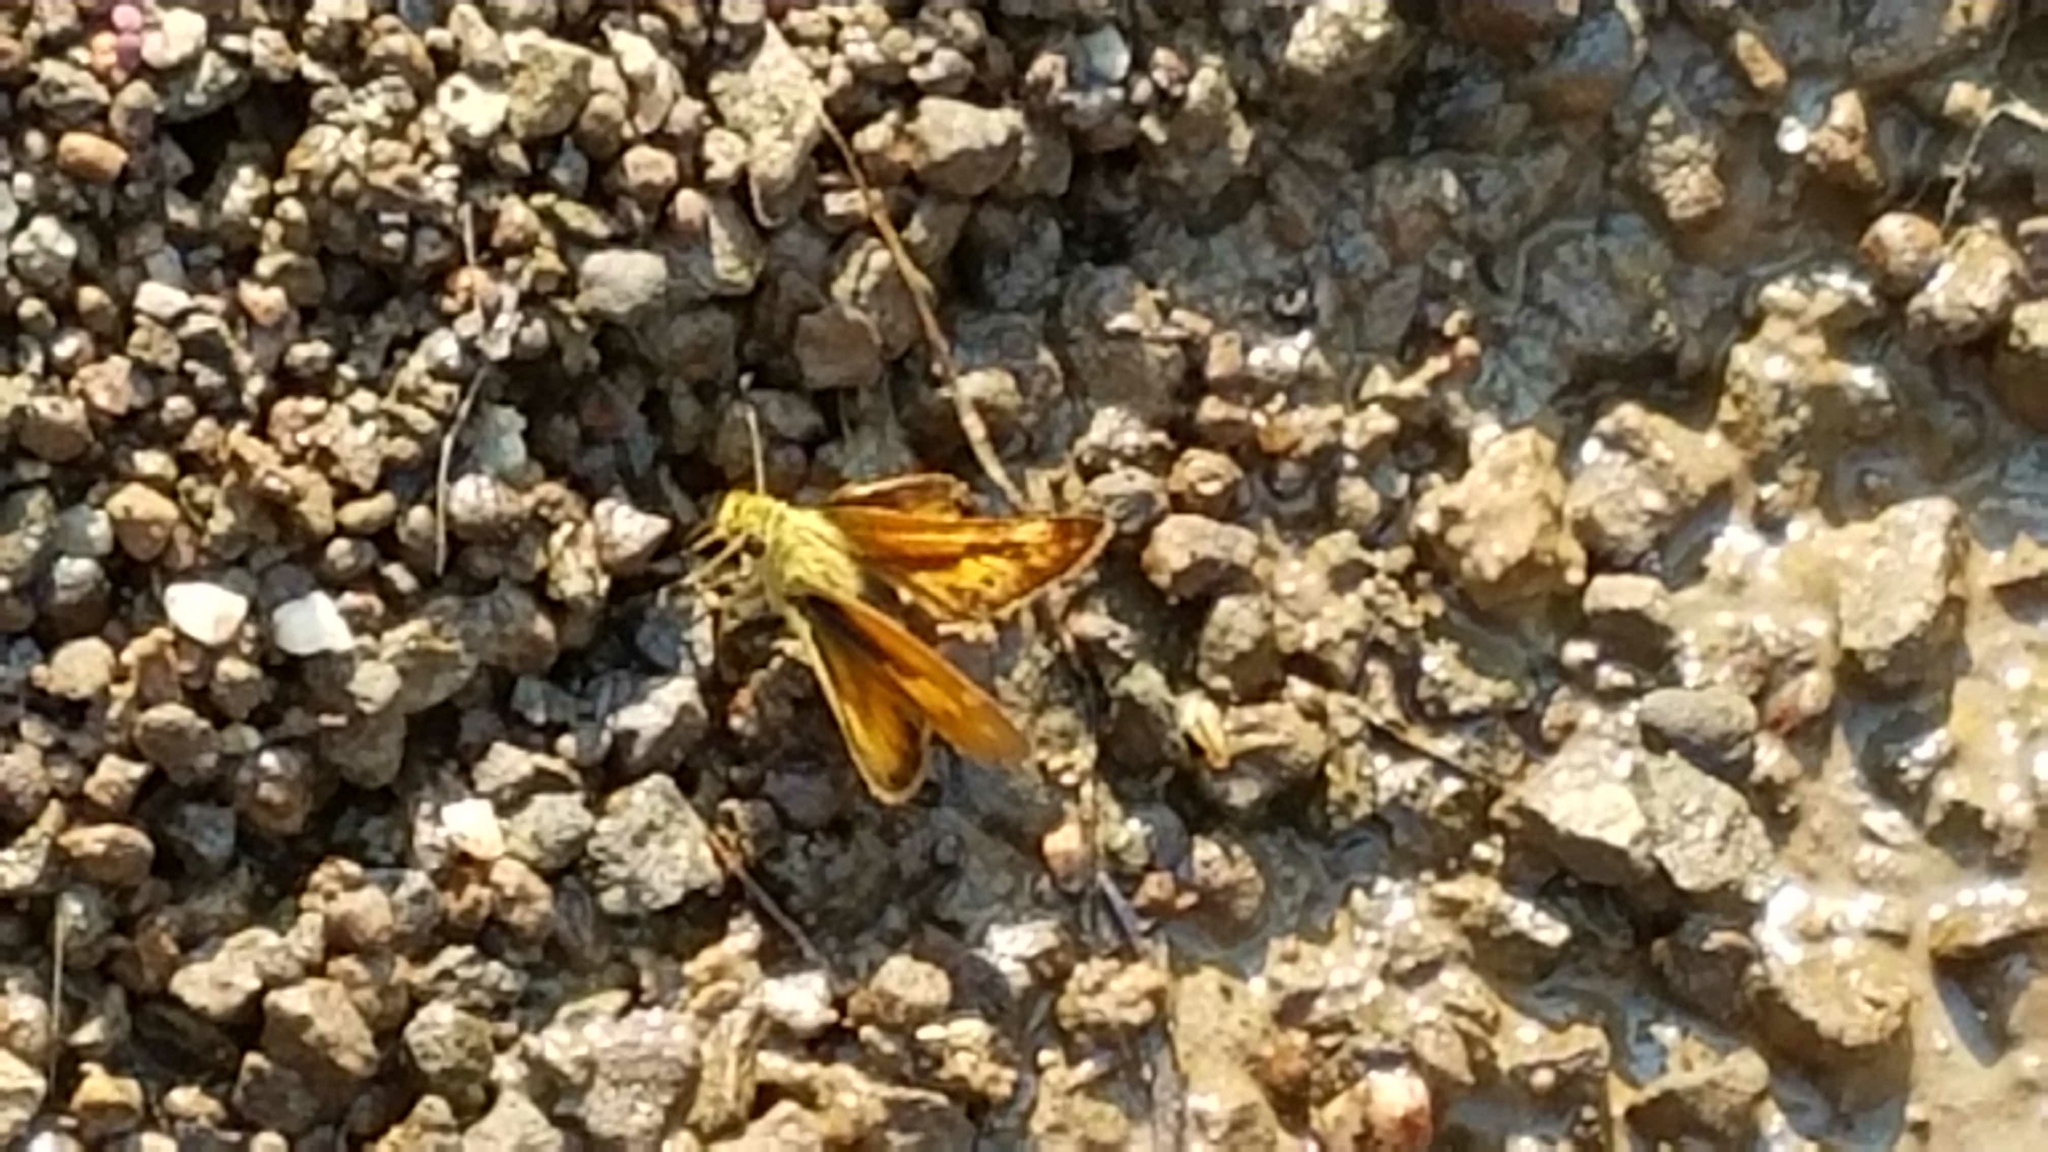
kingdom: Animalia
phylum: Arthropoda
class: Insecta
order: Lepidoptera
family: Hesperiidae
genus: Ochlodes
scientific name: Ochlodes sylvanoides
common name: Woodland skipper
